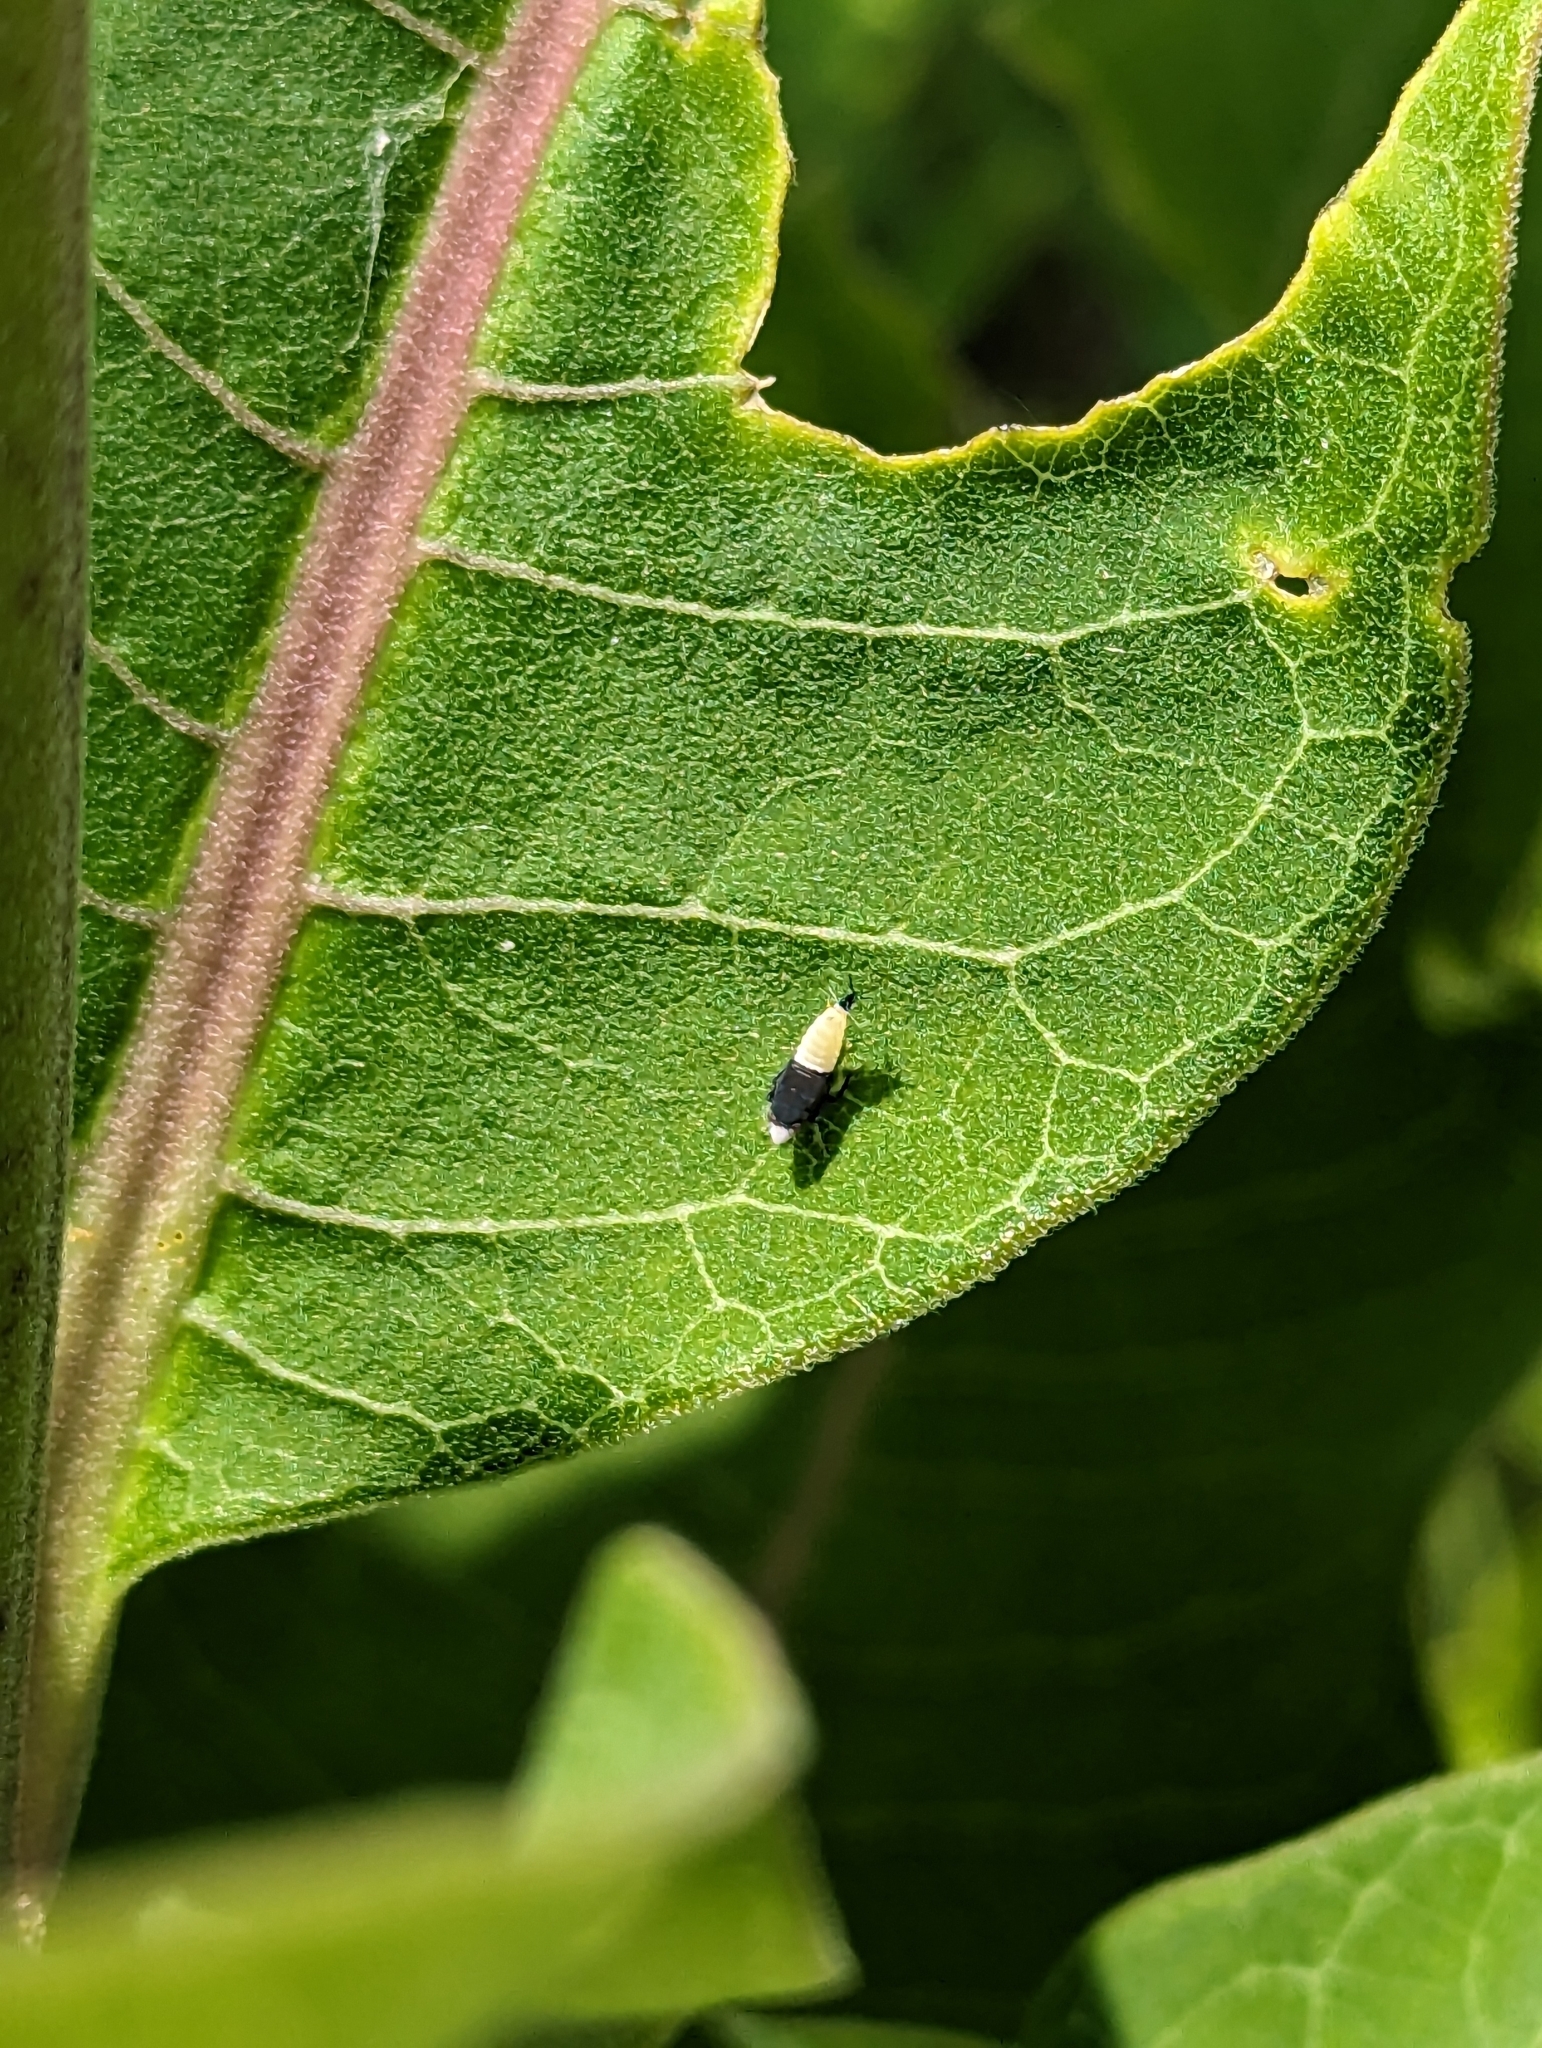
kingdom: Animalia
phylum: Arthropoda
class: Insecta
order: Hemiptera
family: Cicadellidae
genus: Scaphoideus
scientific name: Scaphoideus incisus
